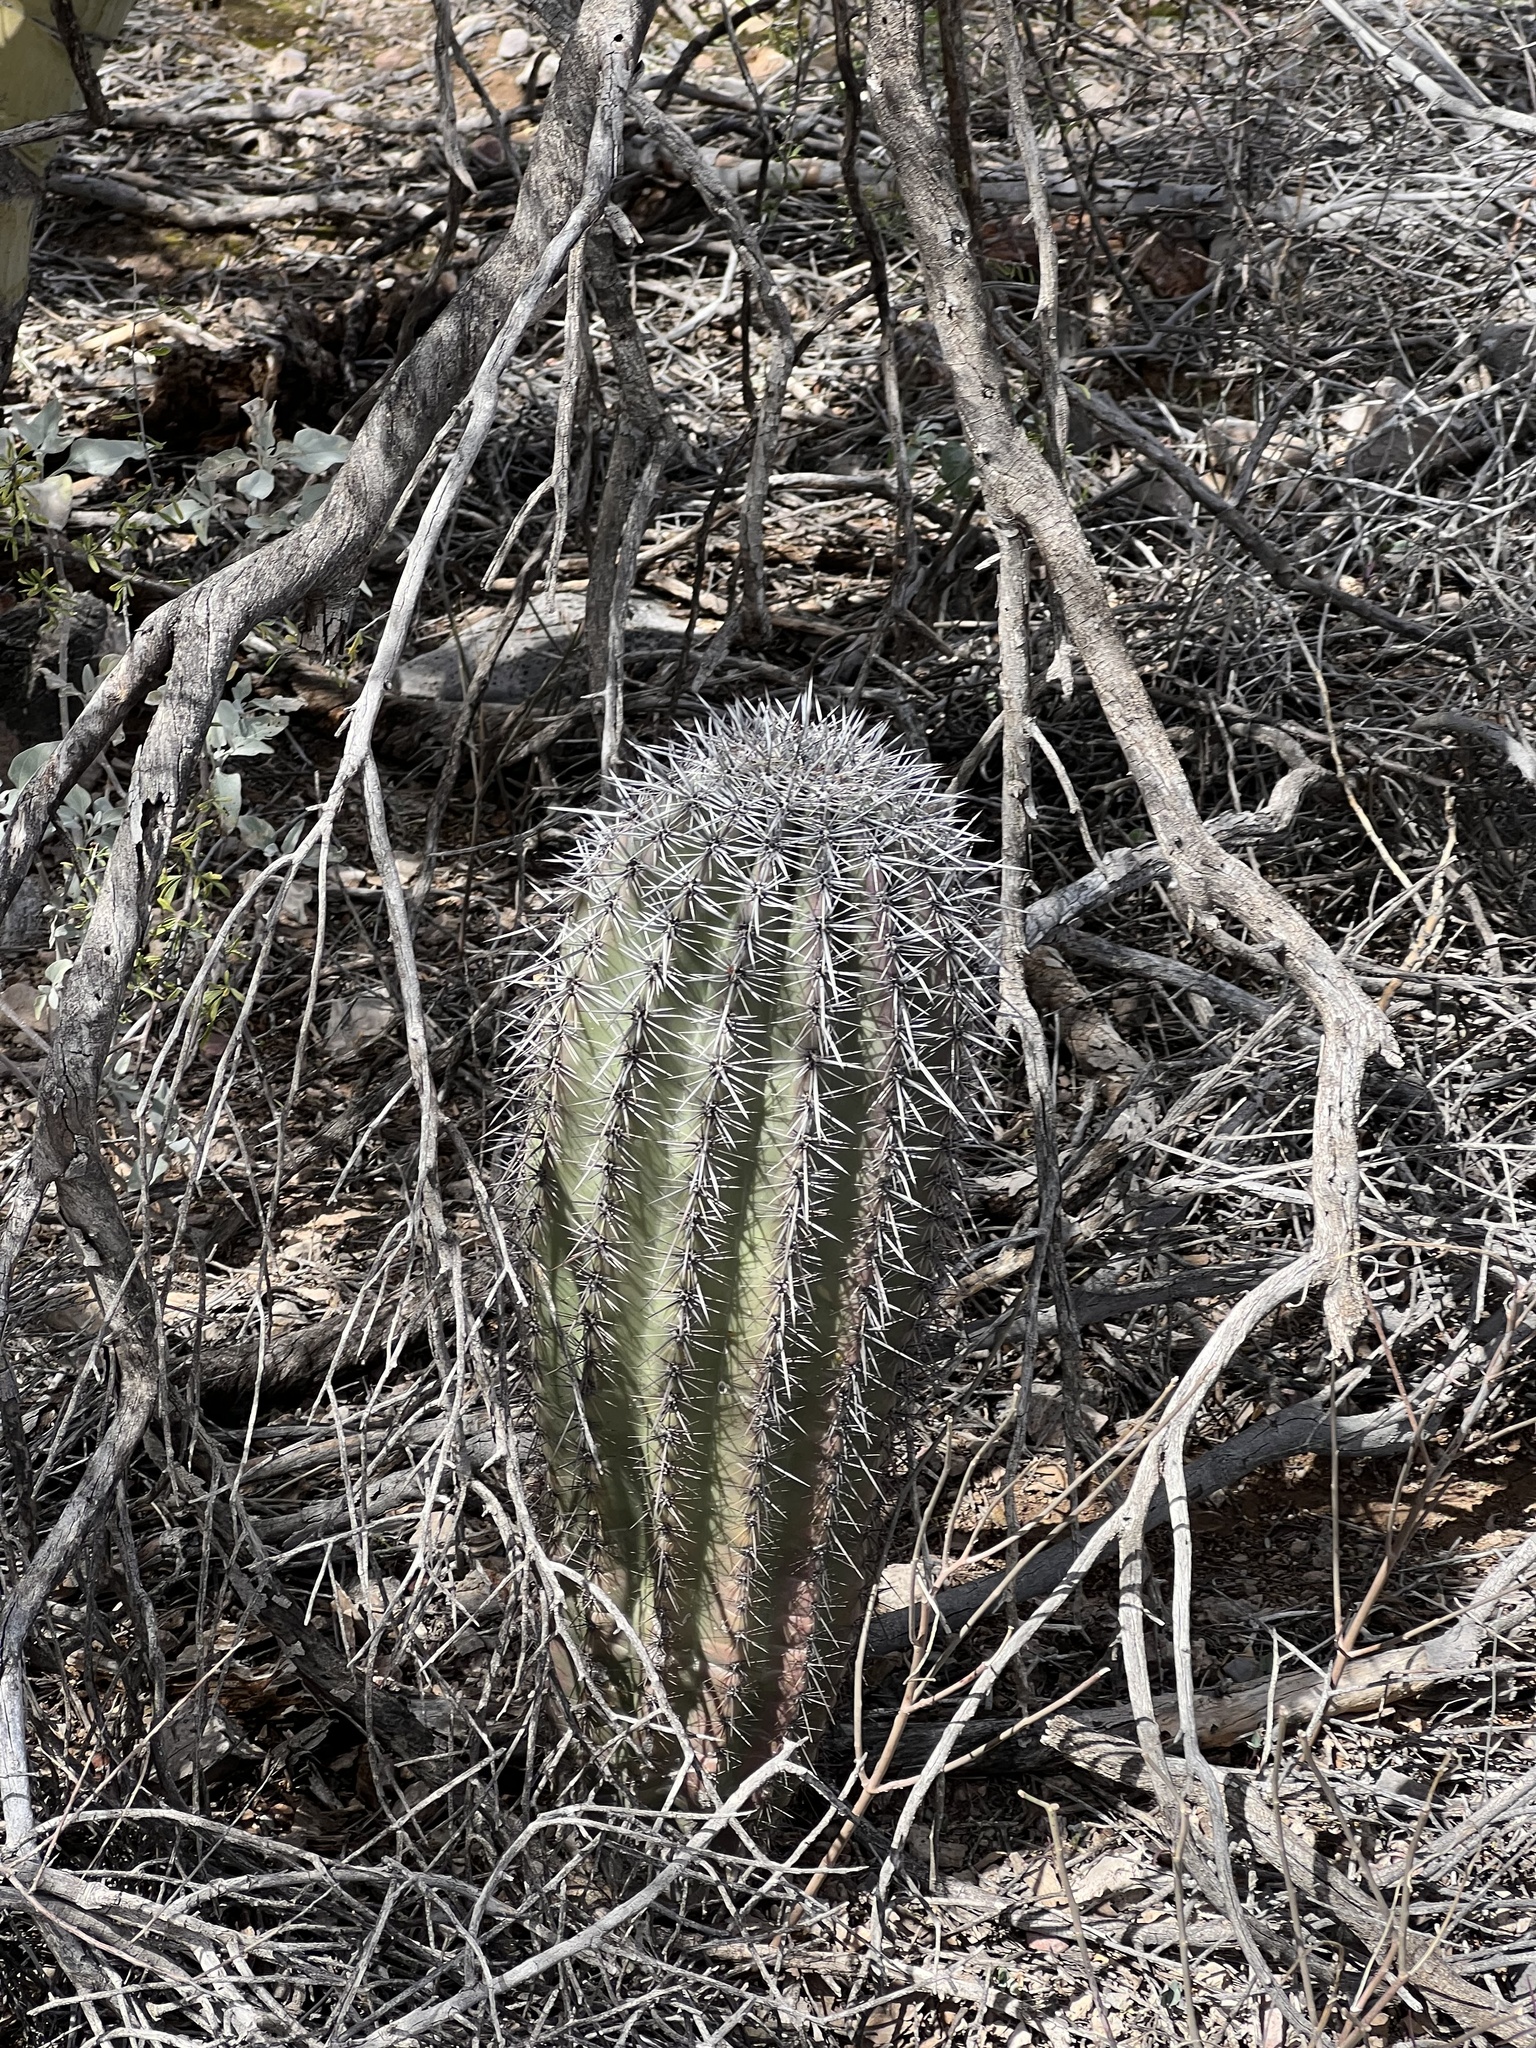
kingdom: Plantae
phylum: Tracheophyta
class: Magnoliopsida
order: Caryophyllales
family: Cactaceae
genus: Carnegiea
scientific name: Carnegiea gigantea
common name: Saguaro
